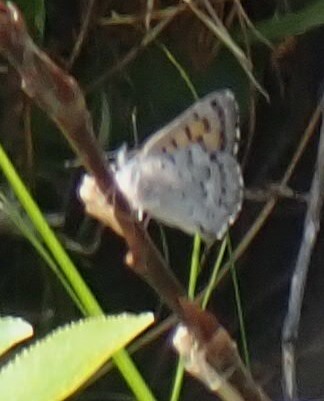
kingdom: Animalia
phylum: Arthropoda
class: Insecta
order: Lepidoptera
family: Lycaenidae
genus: Tharsalea
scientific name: Tharsalea mariposa
